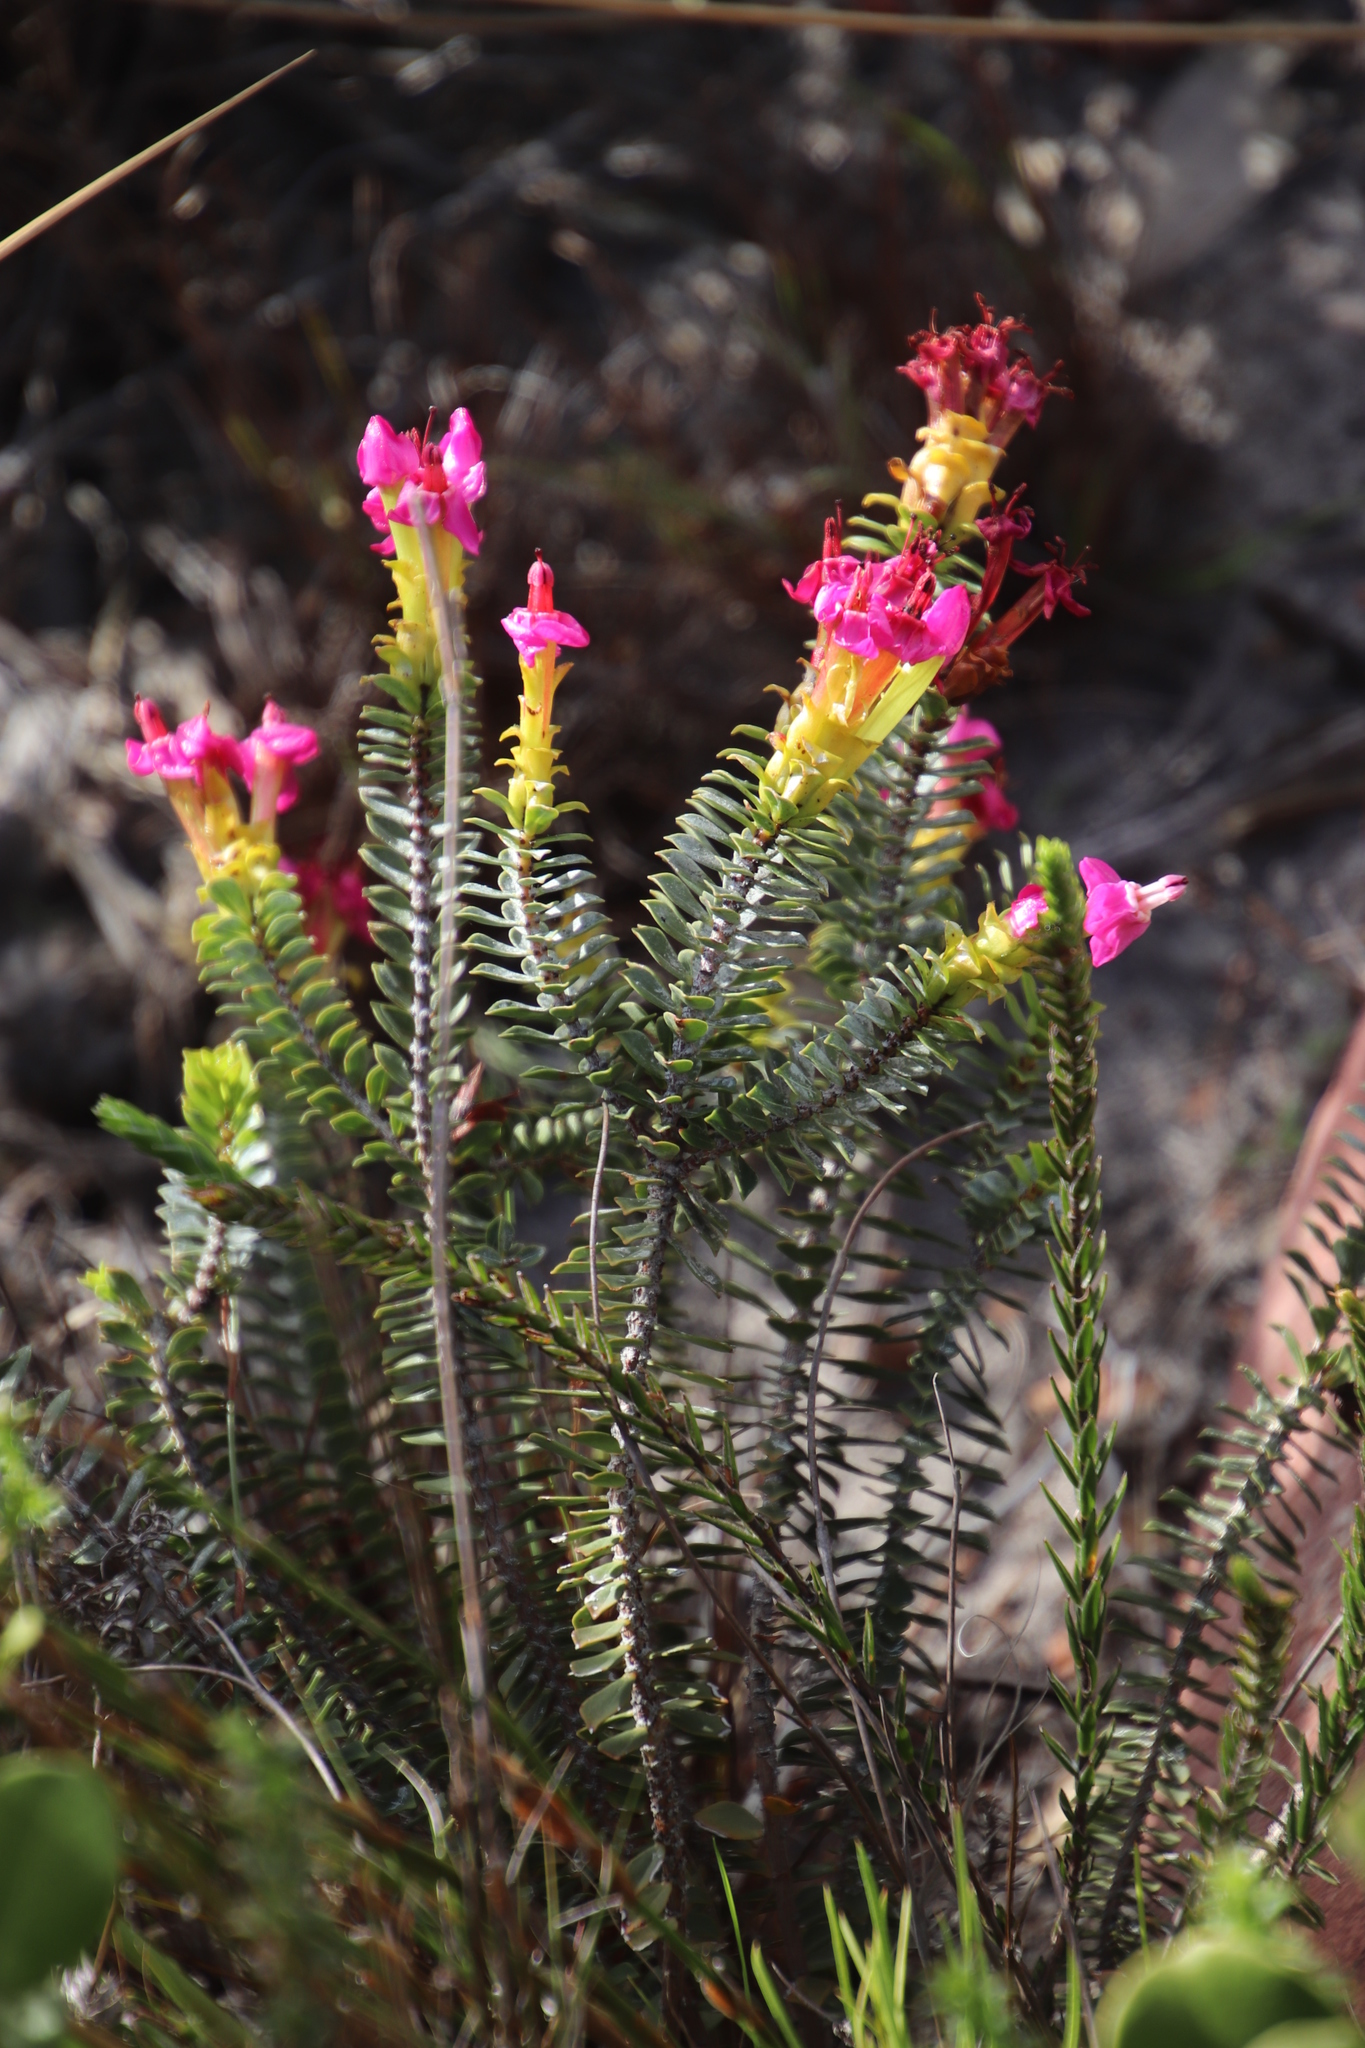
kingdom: Plantae
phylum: Tracheophyta
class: Magnoliopsida
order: Myrtales
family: Penaeaceae
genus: Saltera
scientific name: Saltera sarcocolla
